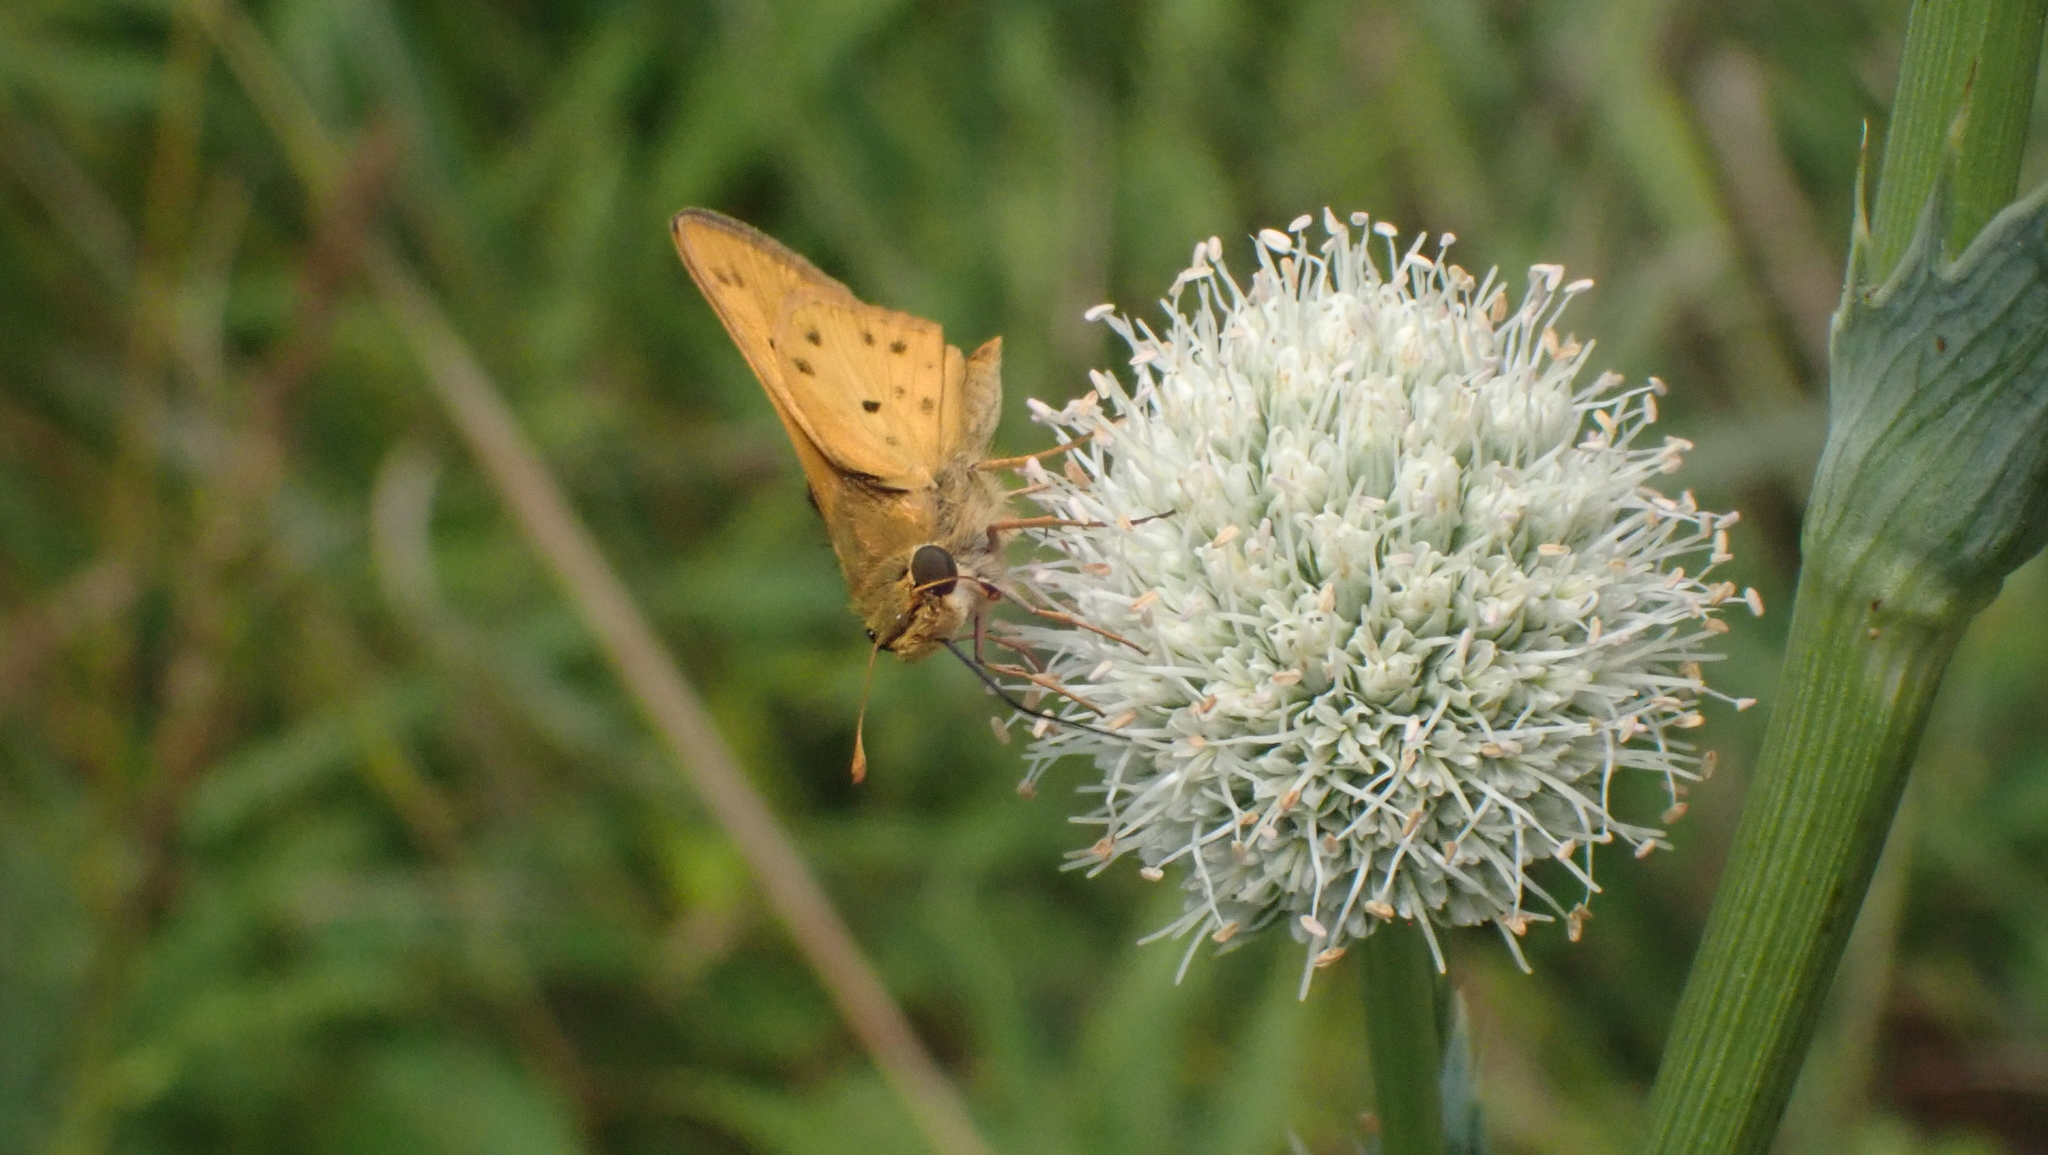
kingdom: Animalia
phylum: Arthropoda
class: Insecta
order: Lepidoptera
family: Hesperiidae
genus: Hylephila
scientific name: Hylephila phyleus
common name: Fiery skipper
